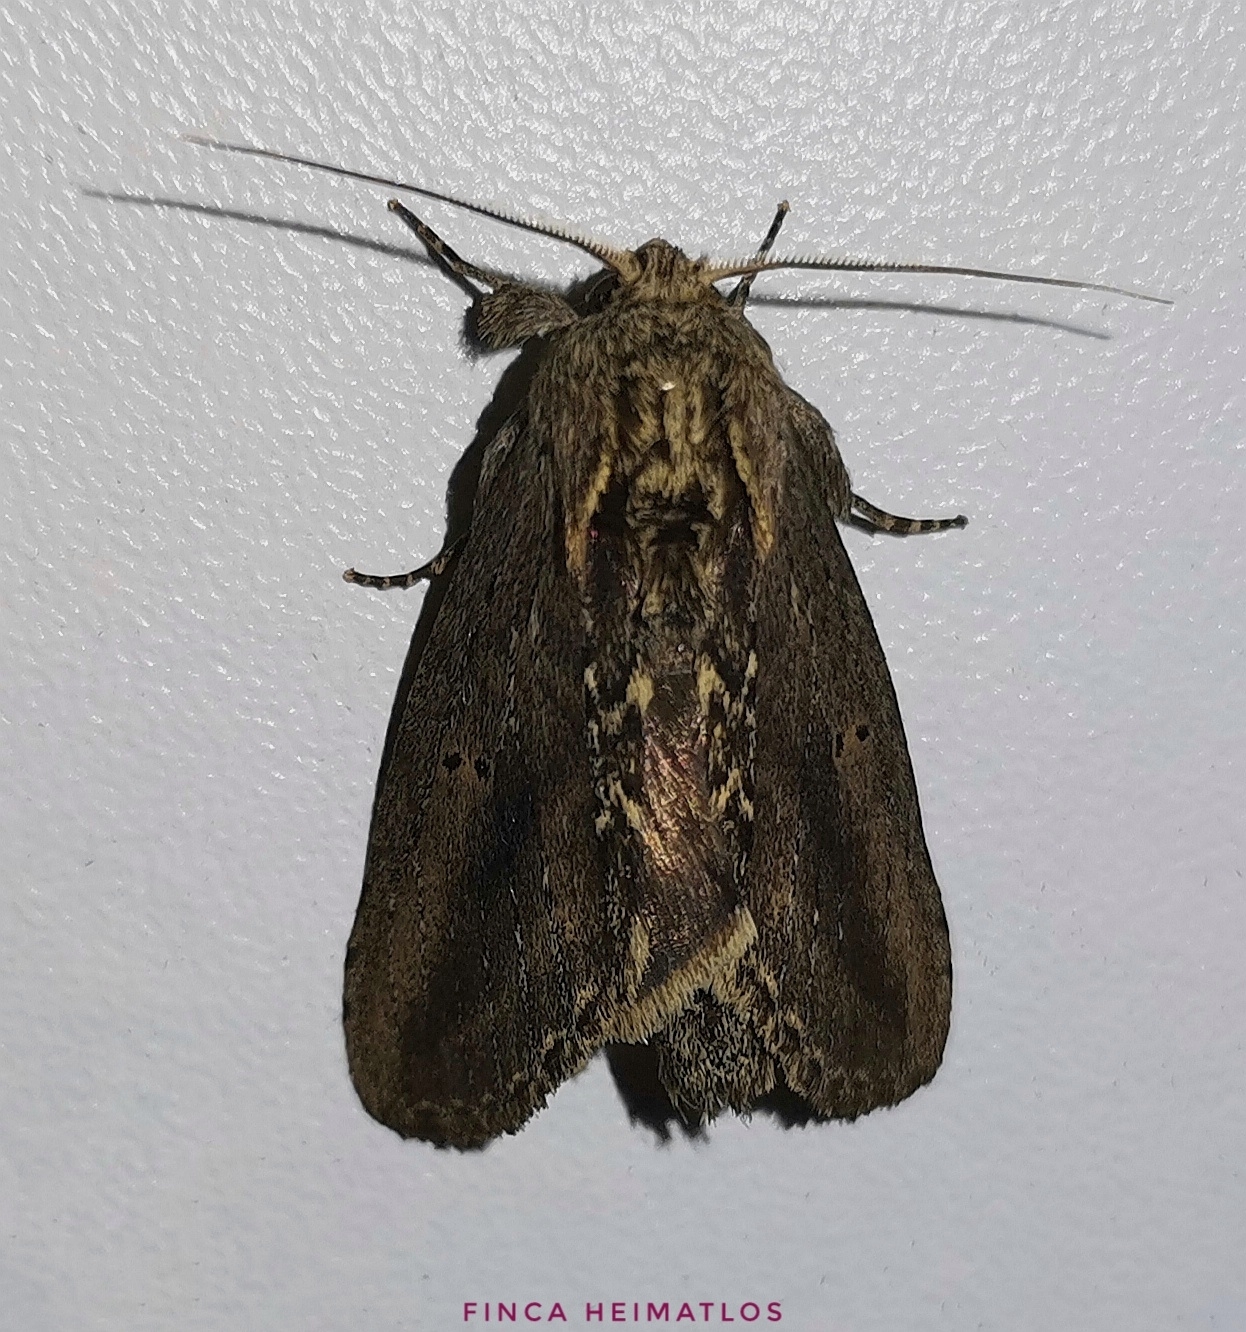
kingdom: Animalia
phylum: Arthropoda
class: Insecta
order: Lepidoptera
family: Notodontidae
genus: Disphragis
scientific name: Disphragis mephitis
